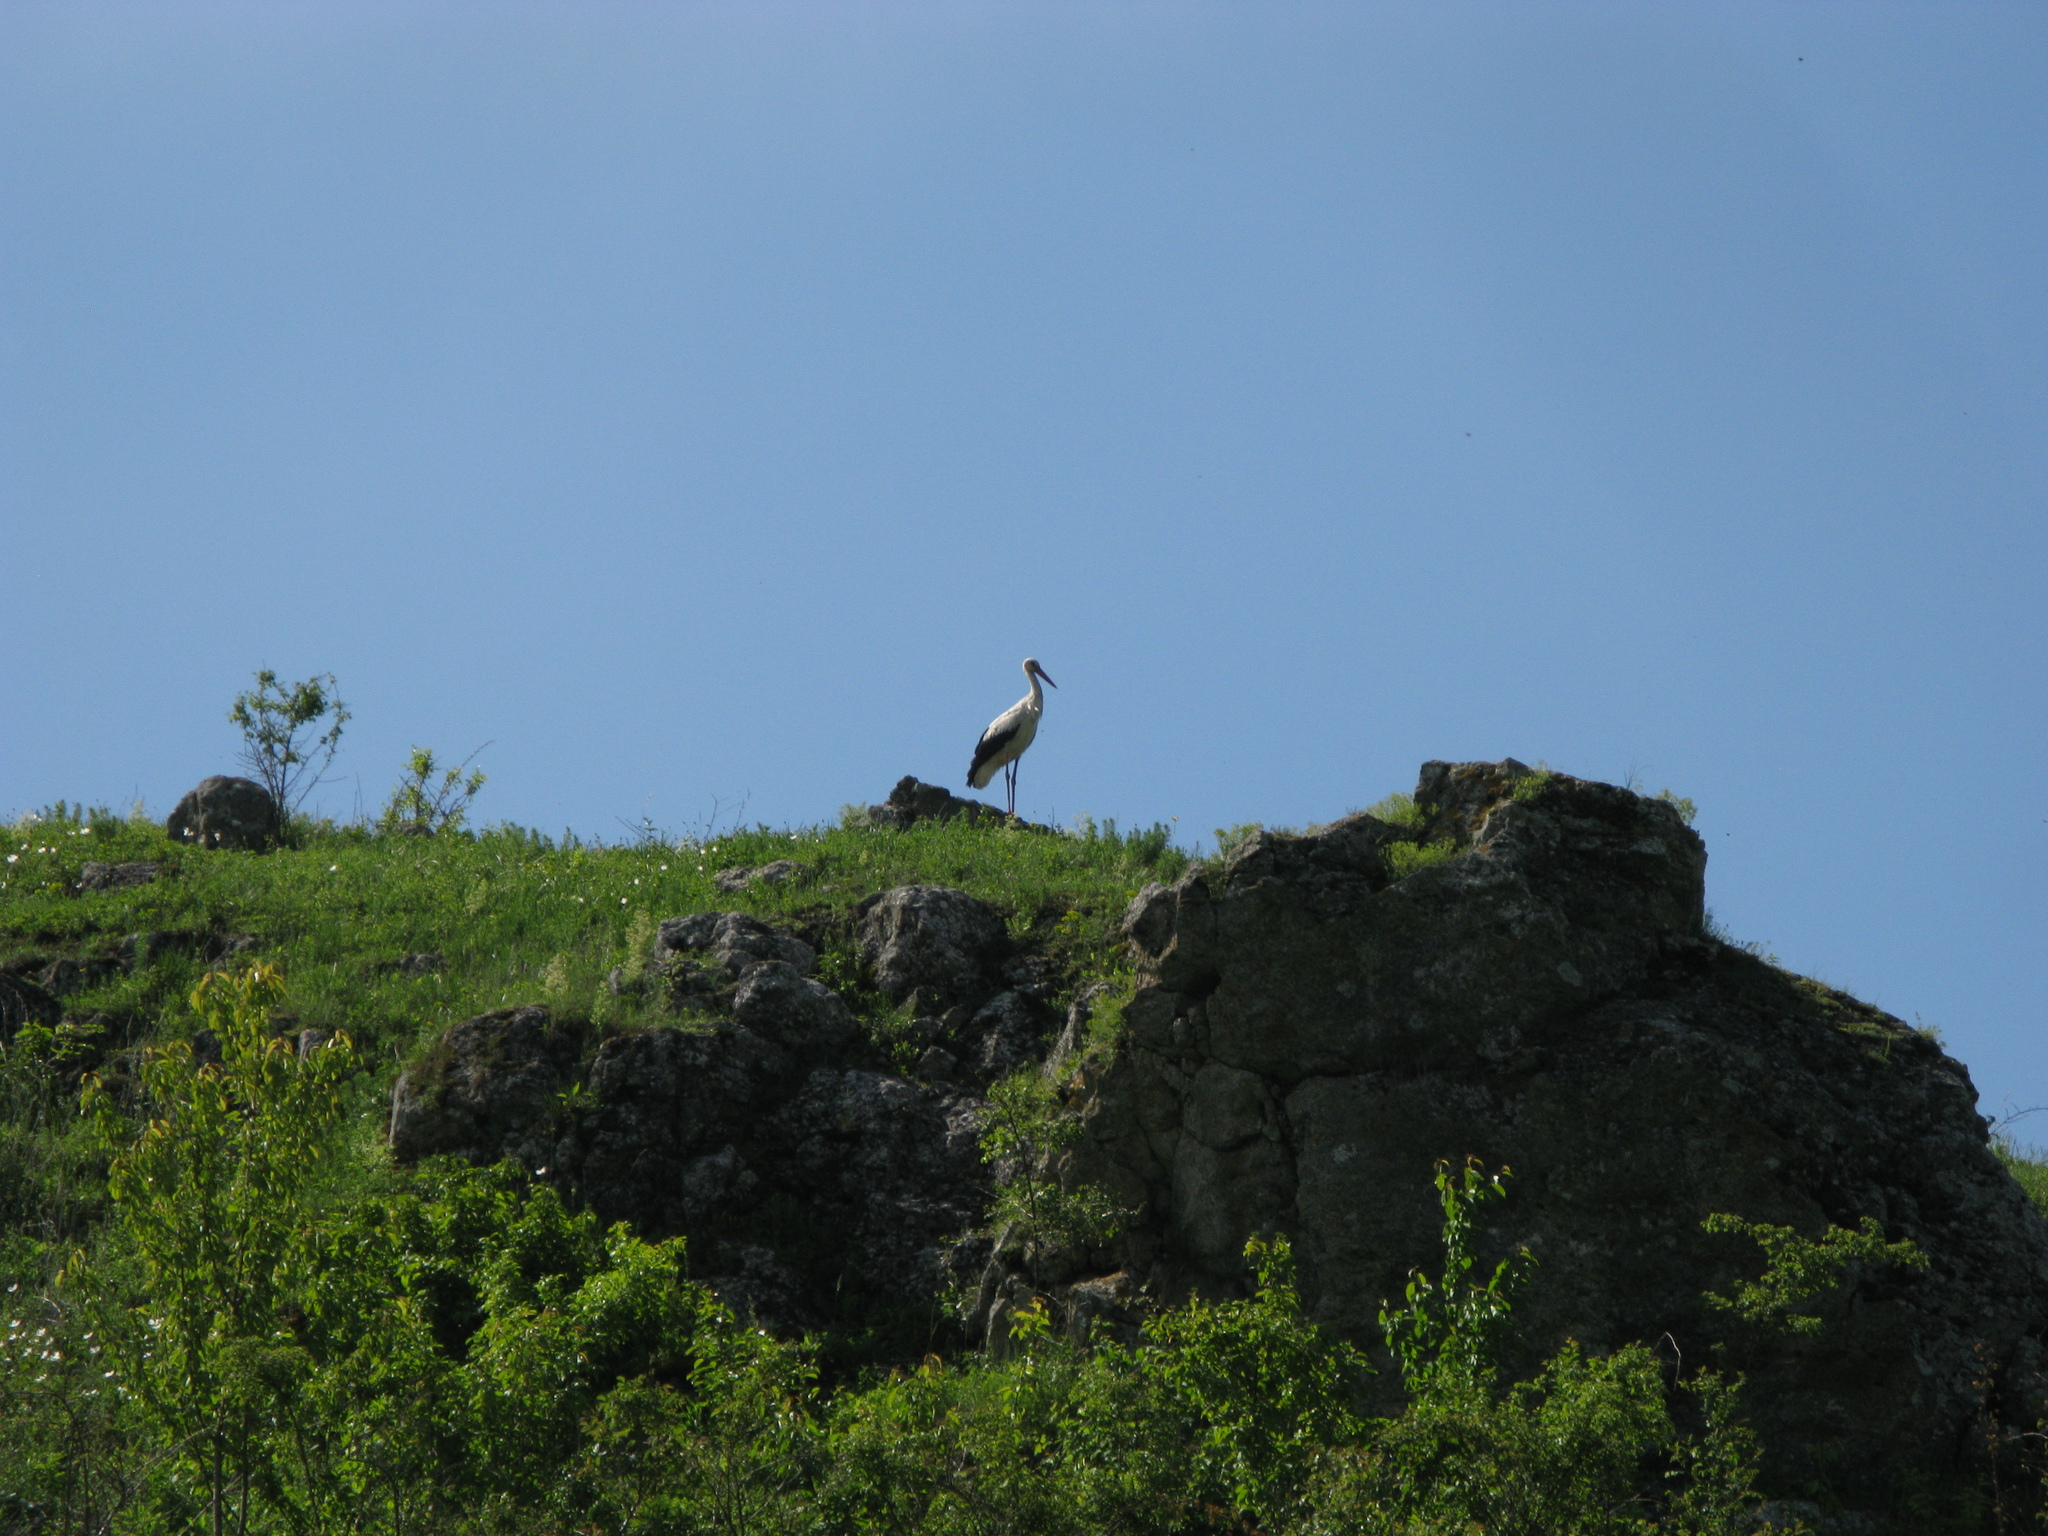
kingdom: Animalia
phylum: Chordata
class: Aves
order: Ciconiiformes
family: Ciconiidae
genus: Ciconia
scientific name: Ciconia ciconia
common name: White stork
